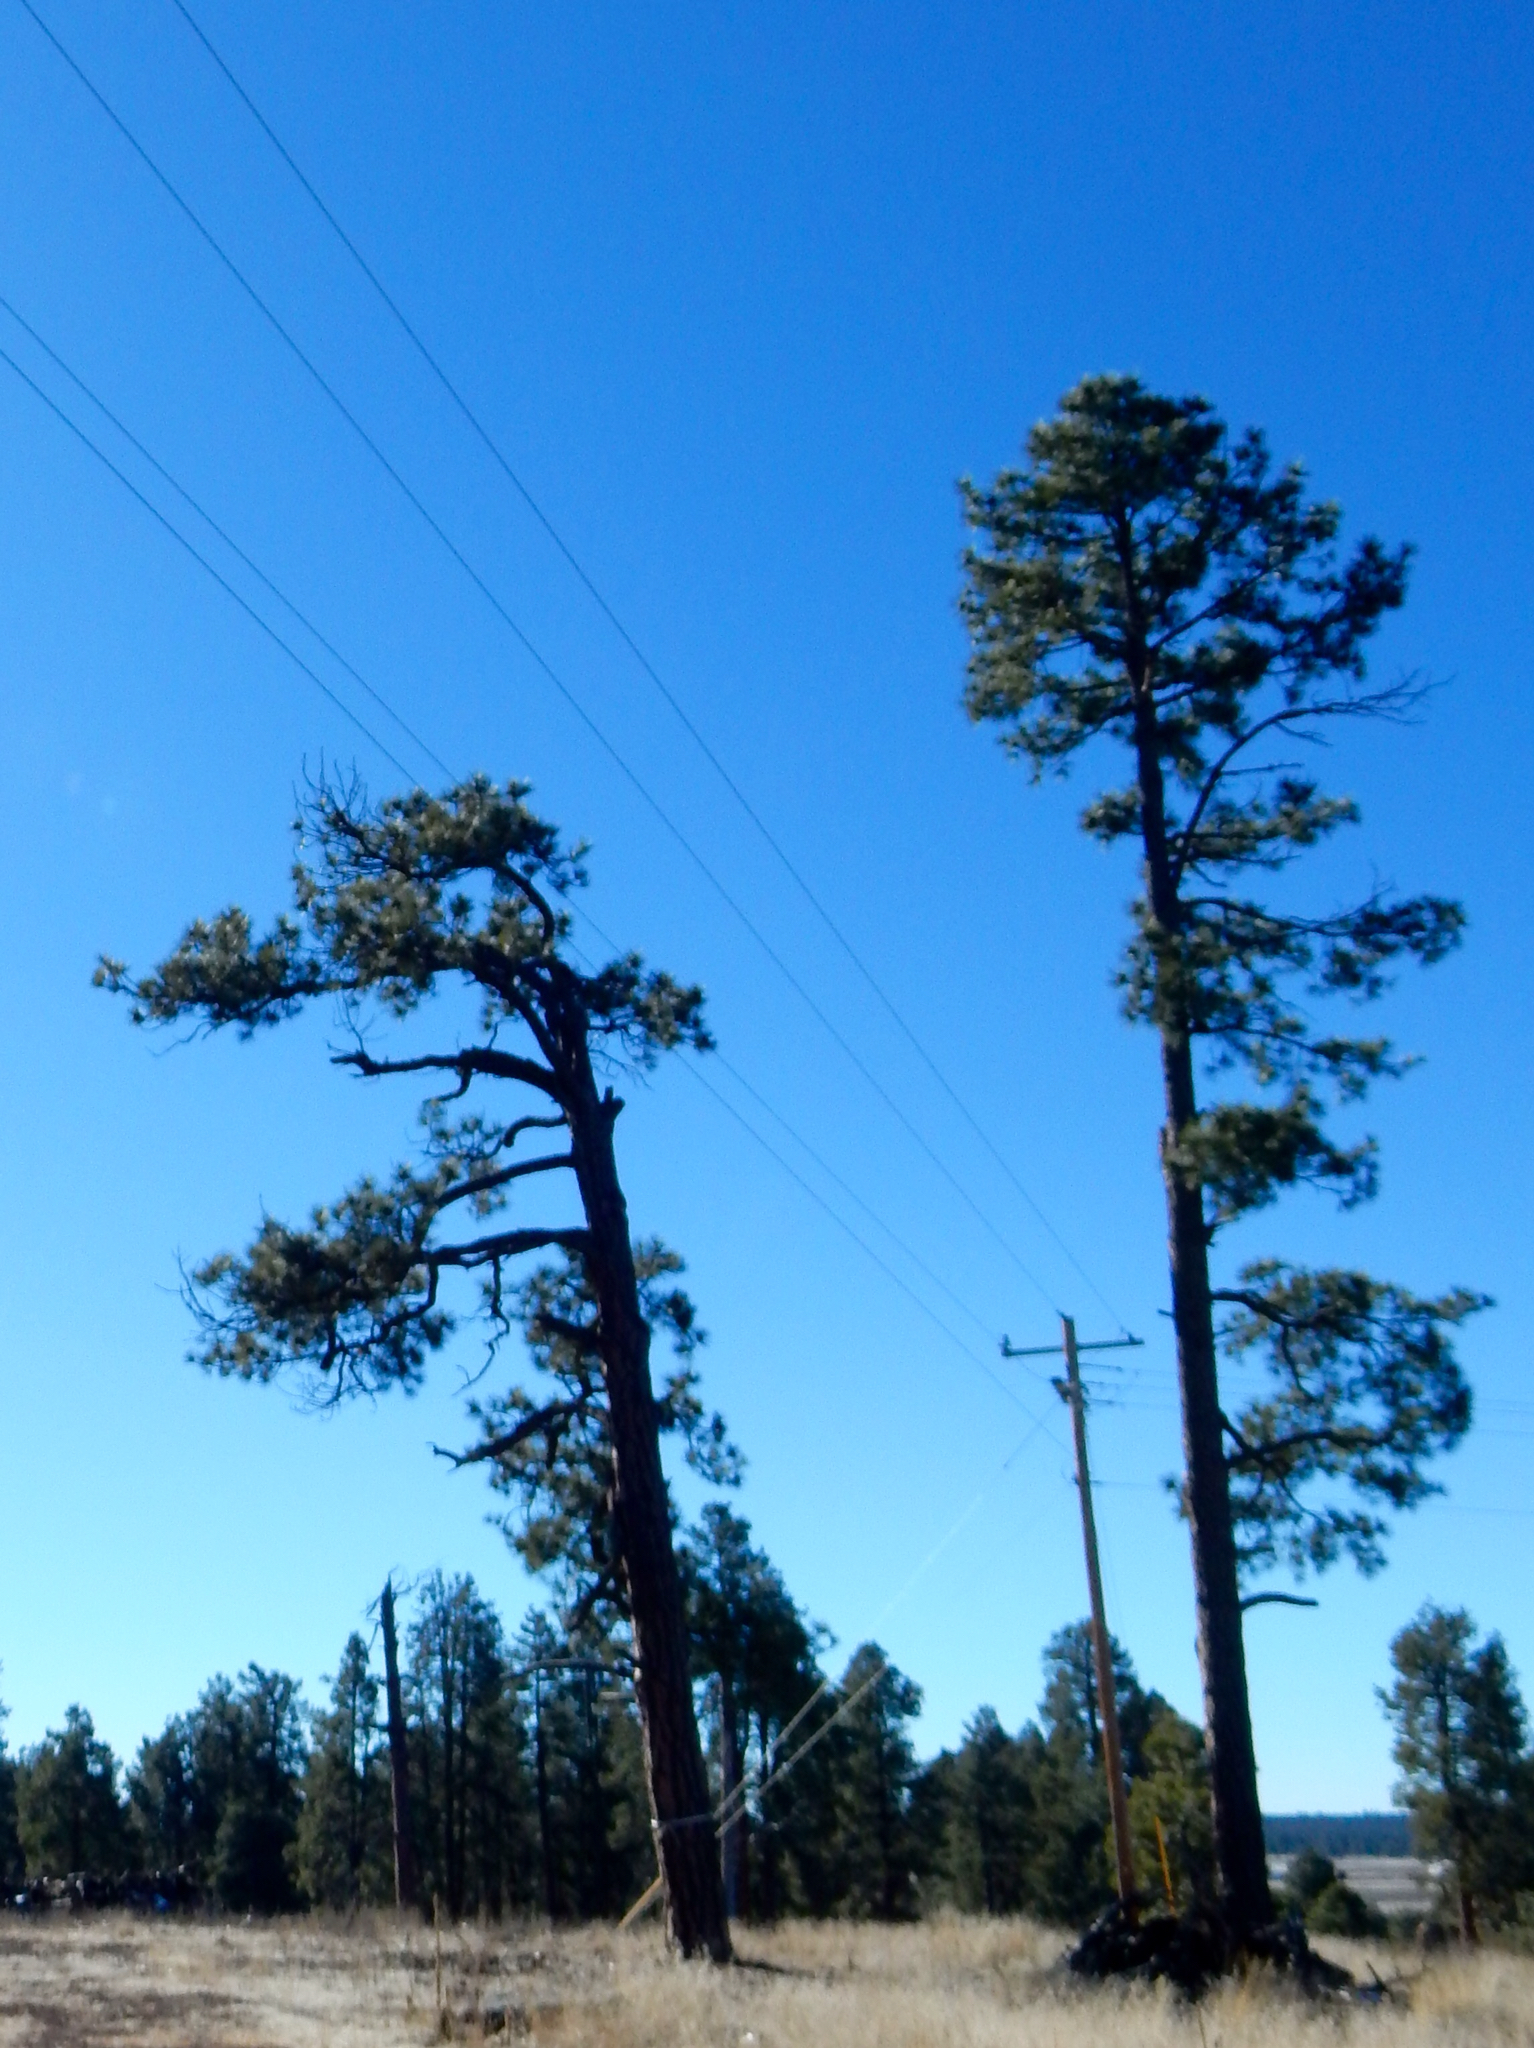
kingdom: Plantae
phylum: Tracheophyta
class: Pinopsida
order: Pinales
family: Pinaceae
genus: Pinus
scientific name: Pinus ponderosa
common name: Western yellow-pine
